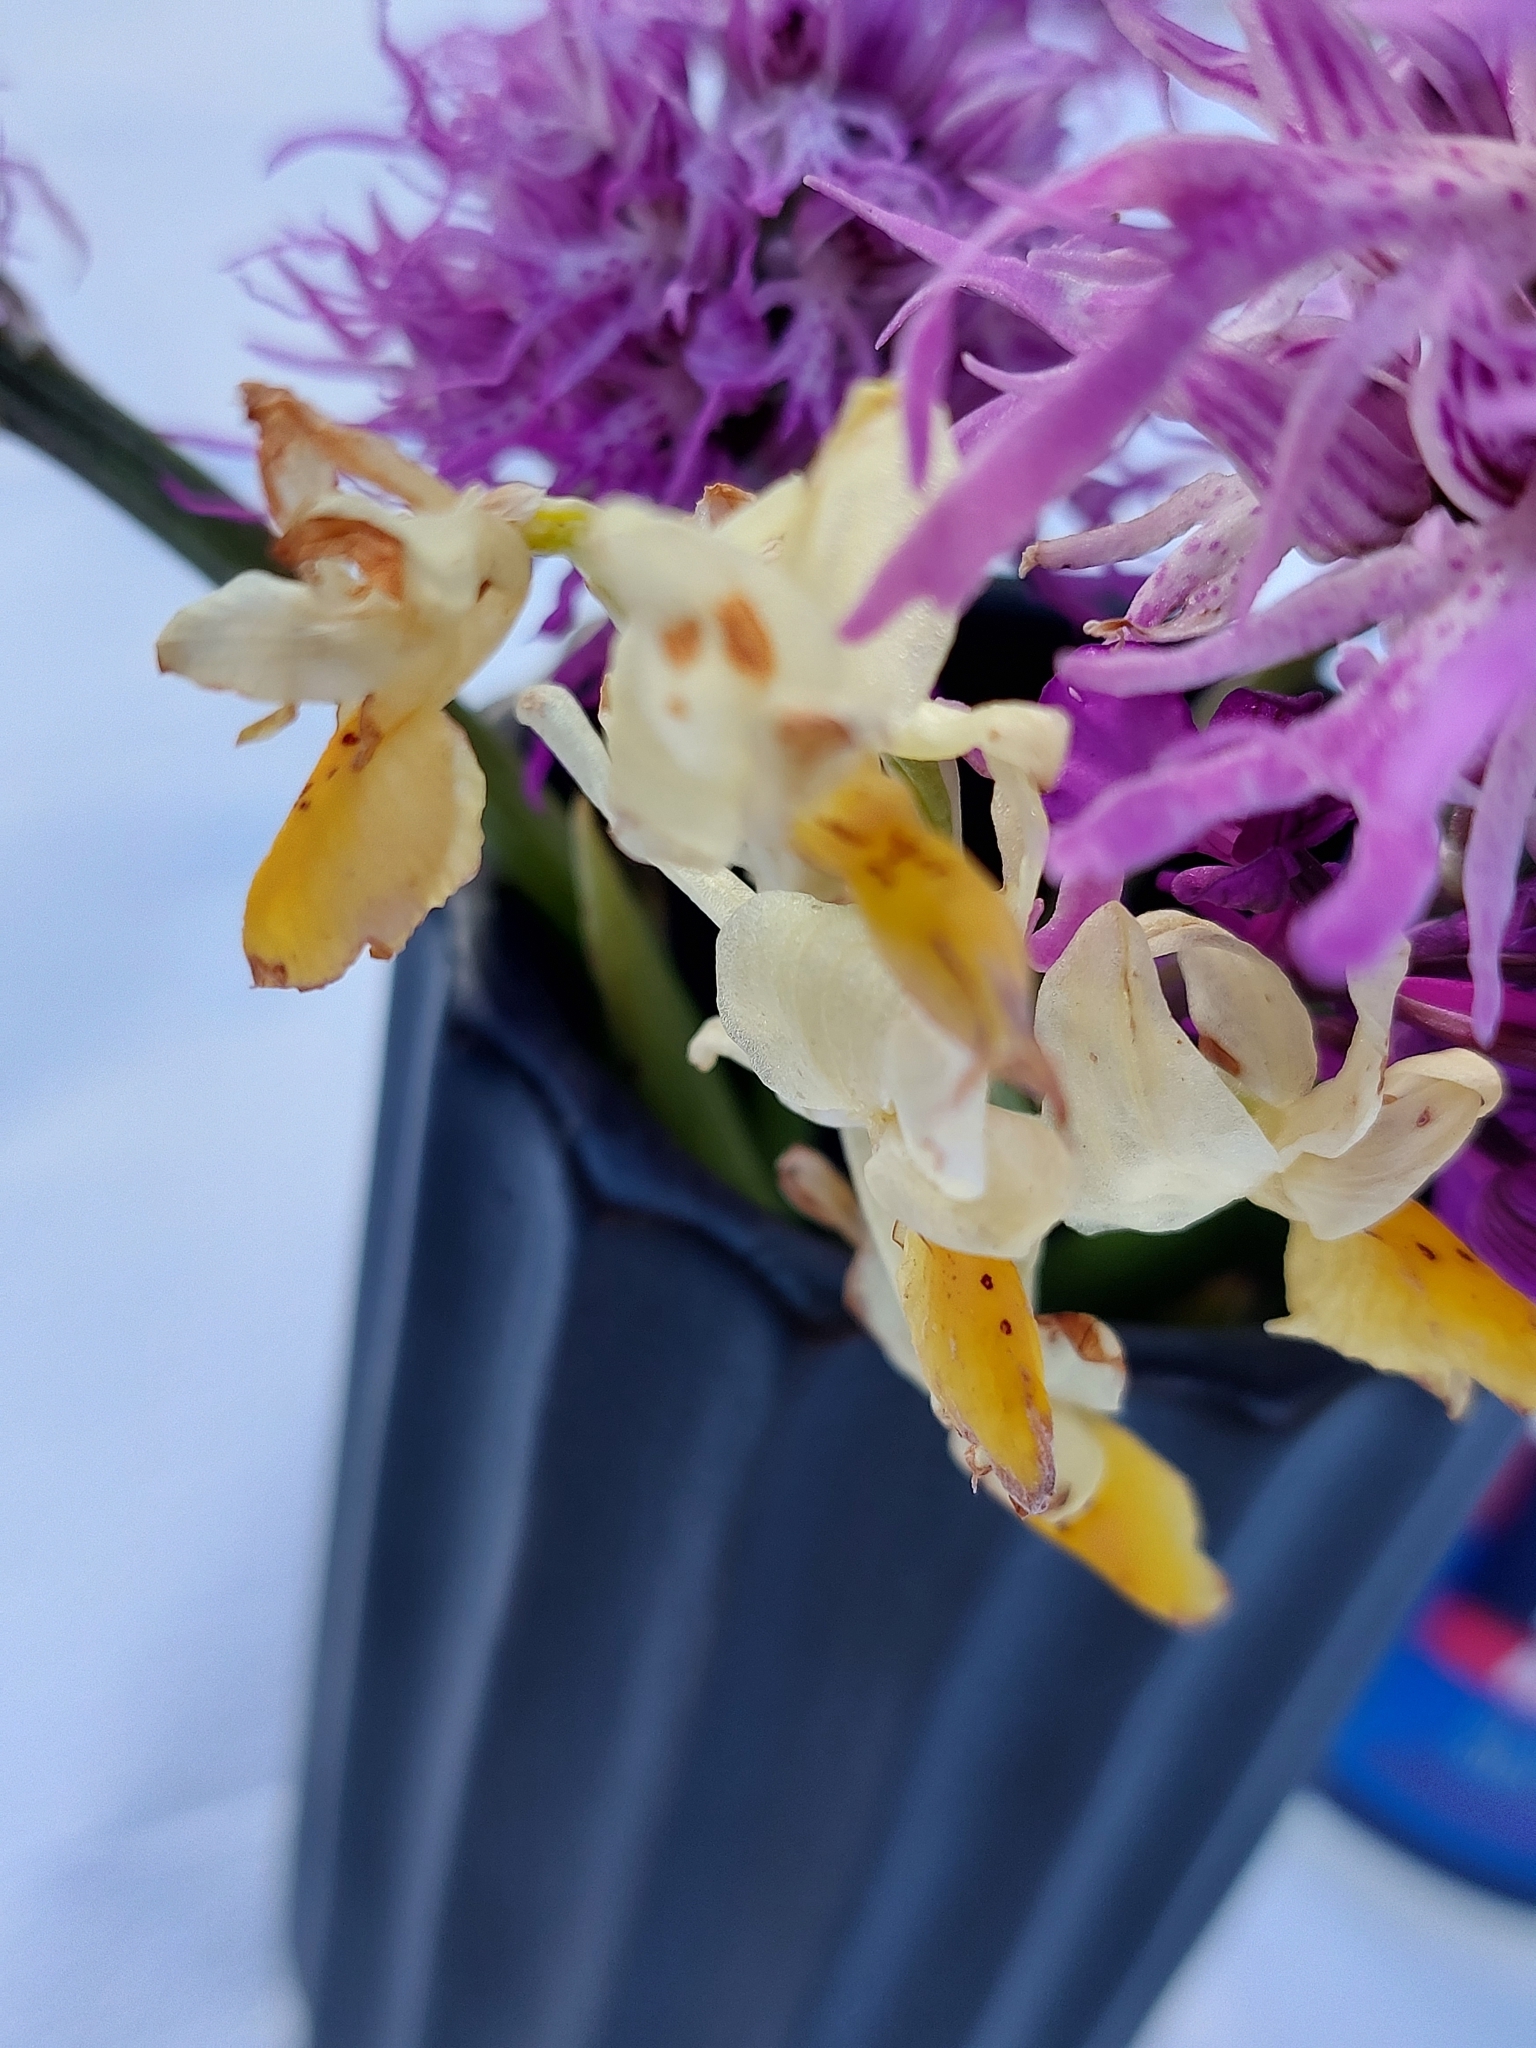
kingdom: Plantae
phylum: Tracheophyta
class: Liliopsida
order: Asparagales
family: Orchidaceae
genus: Orchis
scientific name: Orchis pauciflora
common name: Few-flowered orchid
